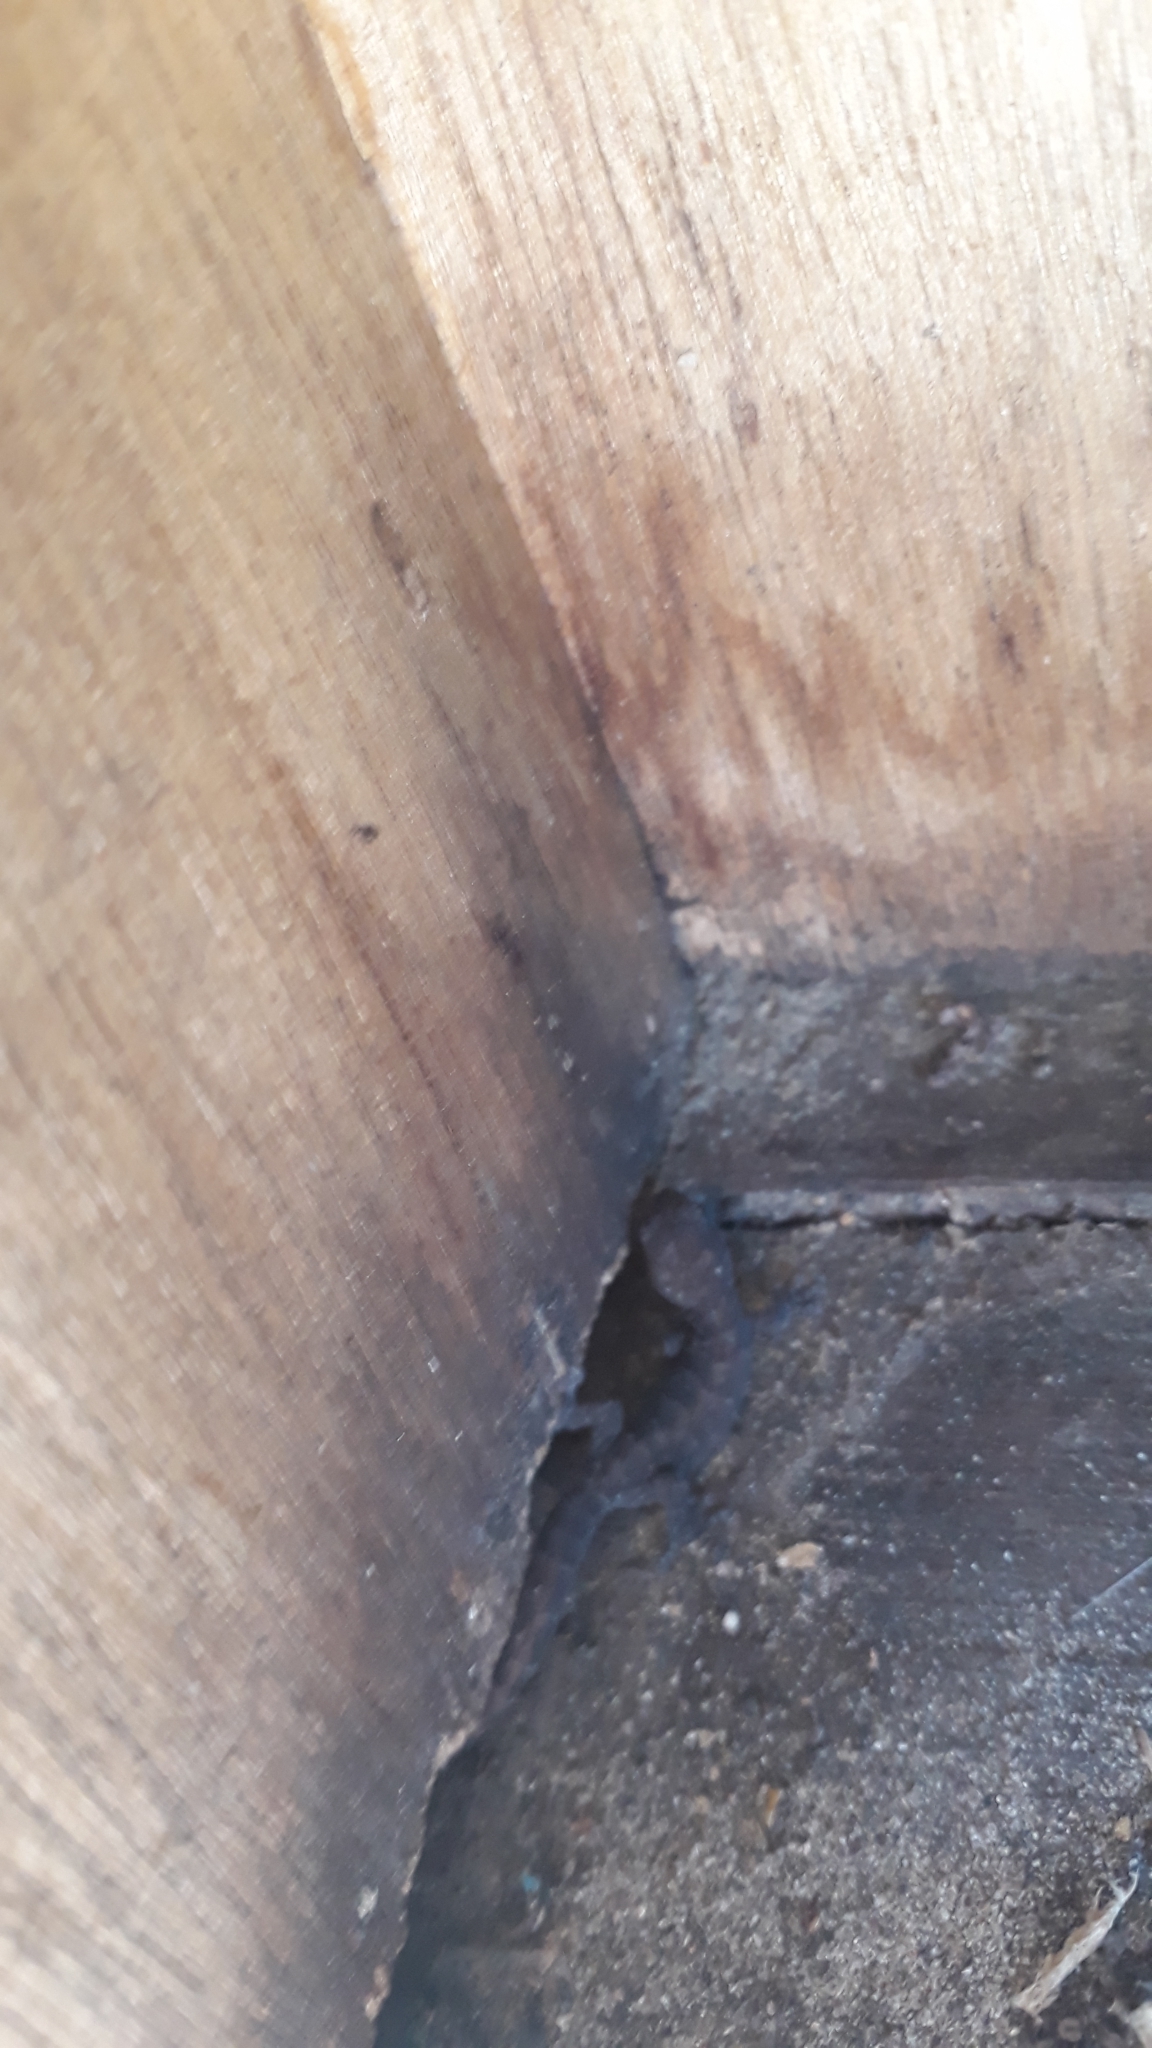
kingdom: Animalia
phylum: Chordata
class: Squamata
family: Gekkonidae
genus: Afrogecko
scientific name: Afrogecko porphyreus
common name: Marbled leaf-toed gecko
